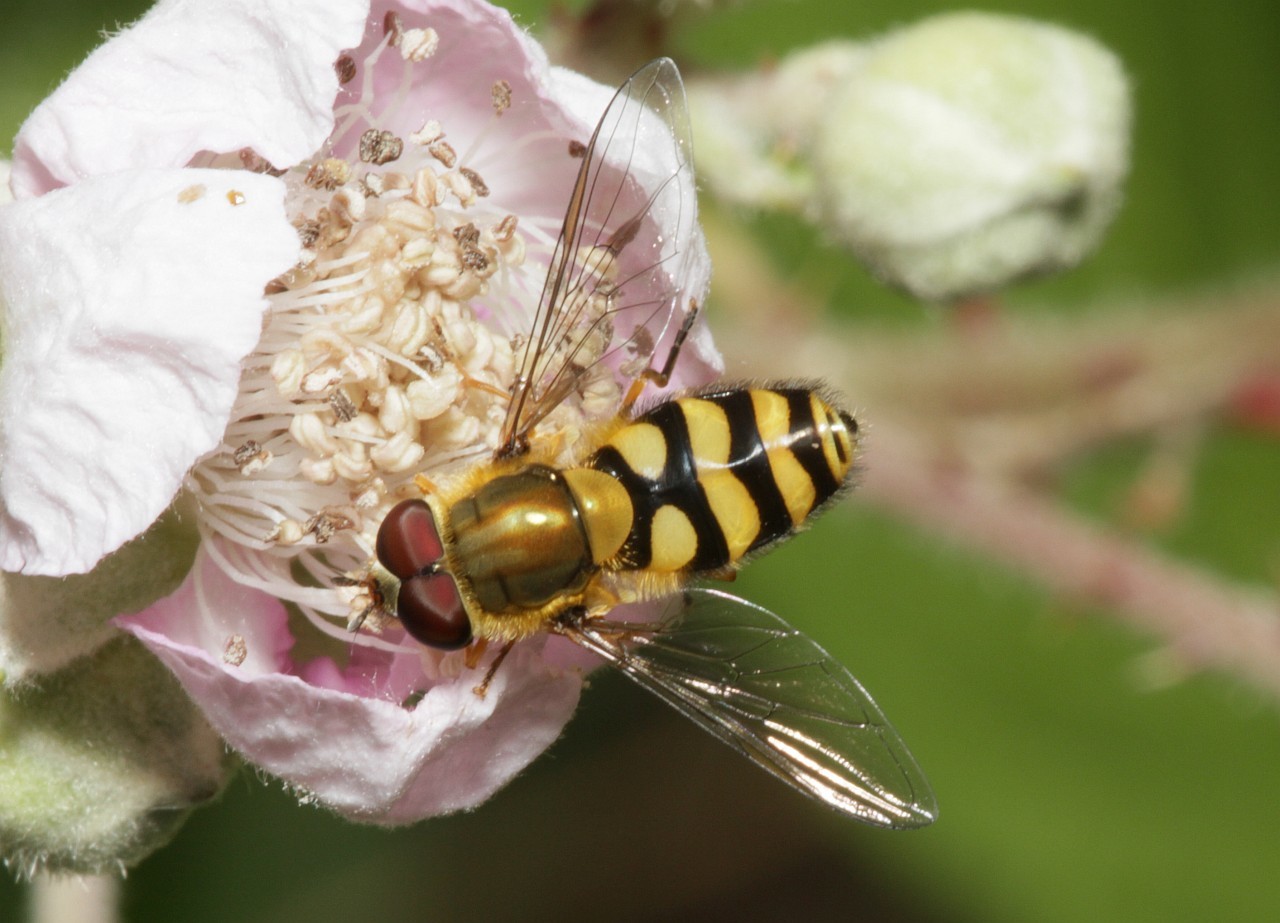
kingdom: Animalia
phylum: Arthropoda
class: Insecta
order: Diptera
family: Syrphidae
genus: Syrphus
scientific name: Syrphus
